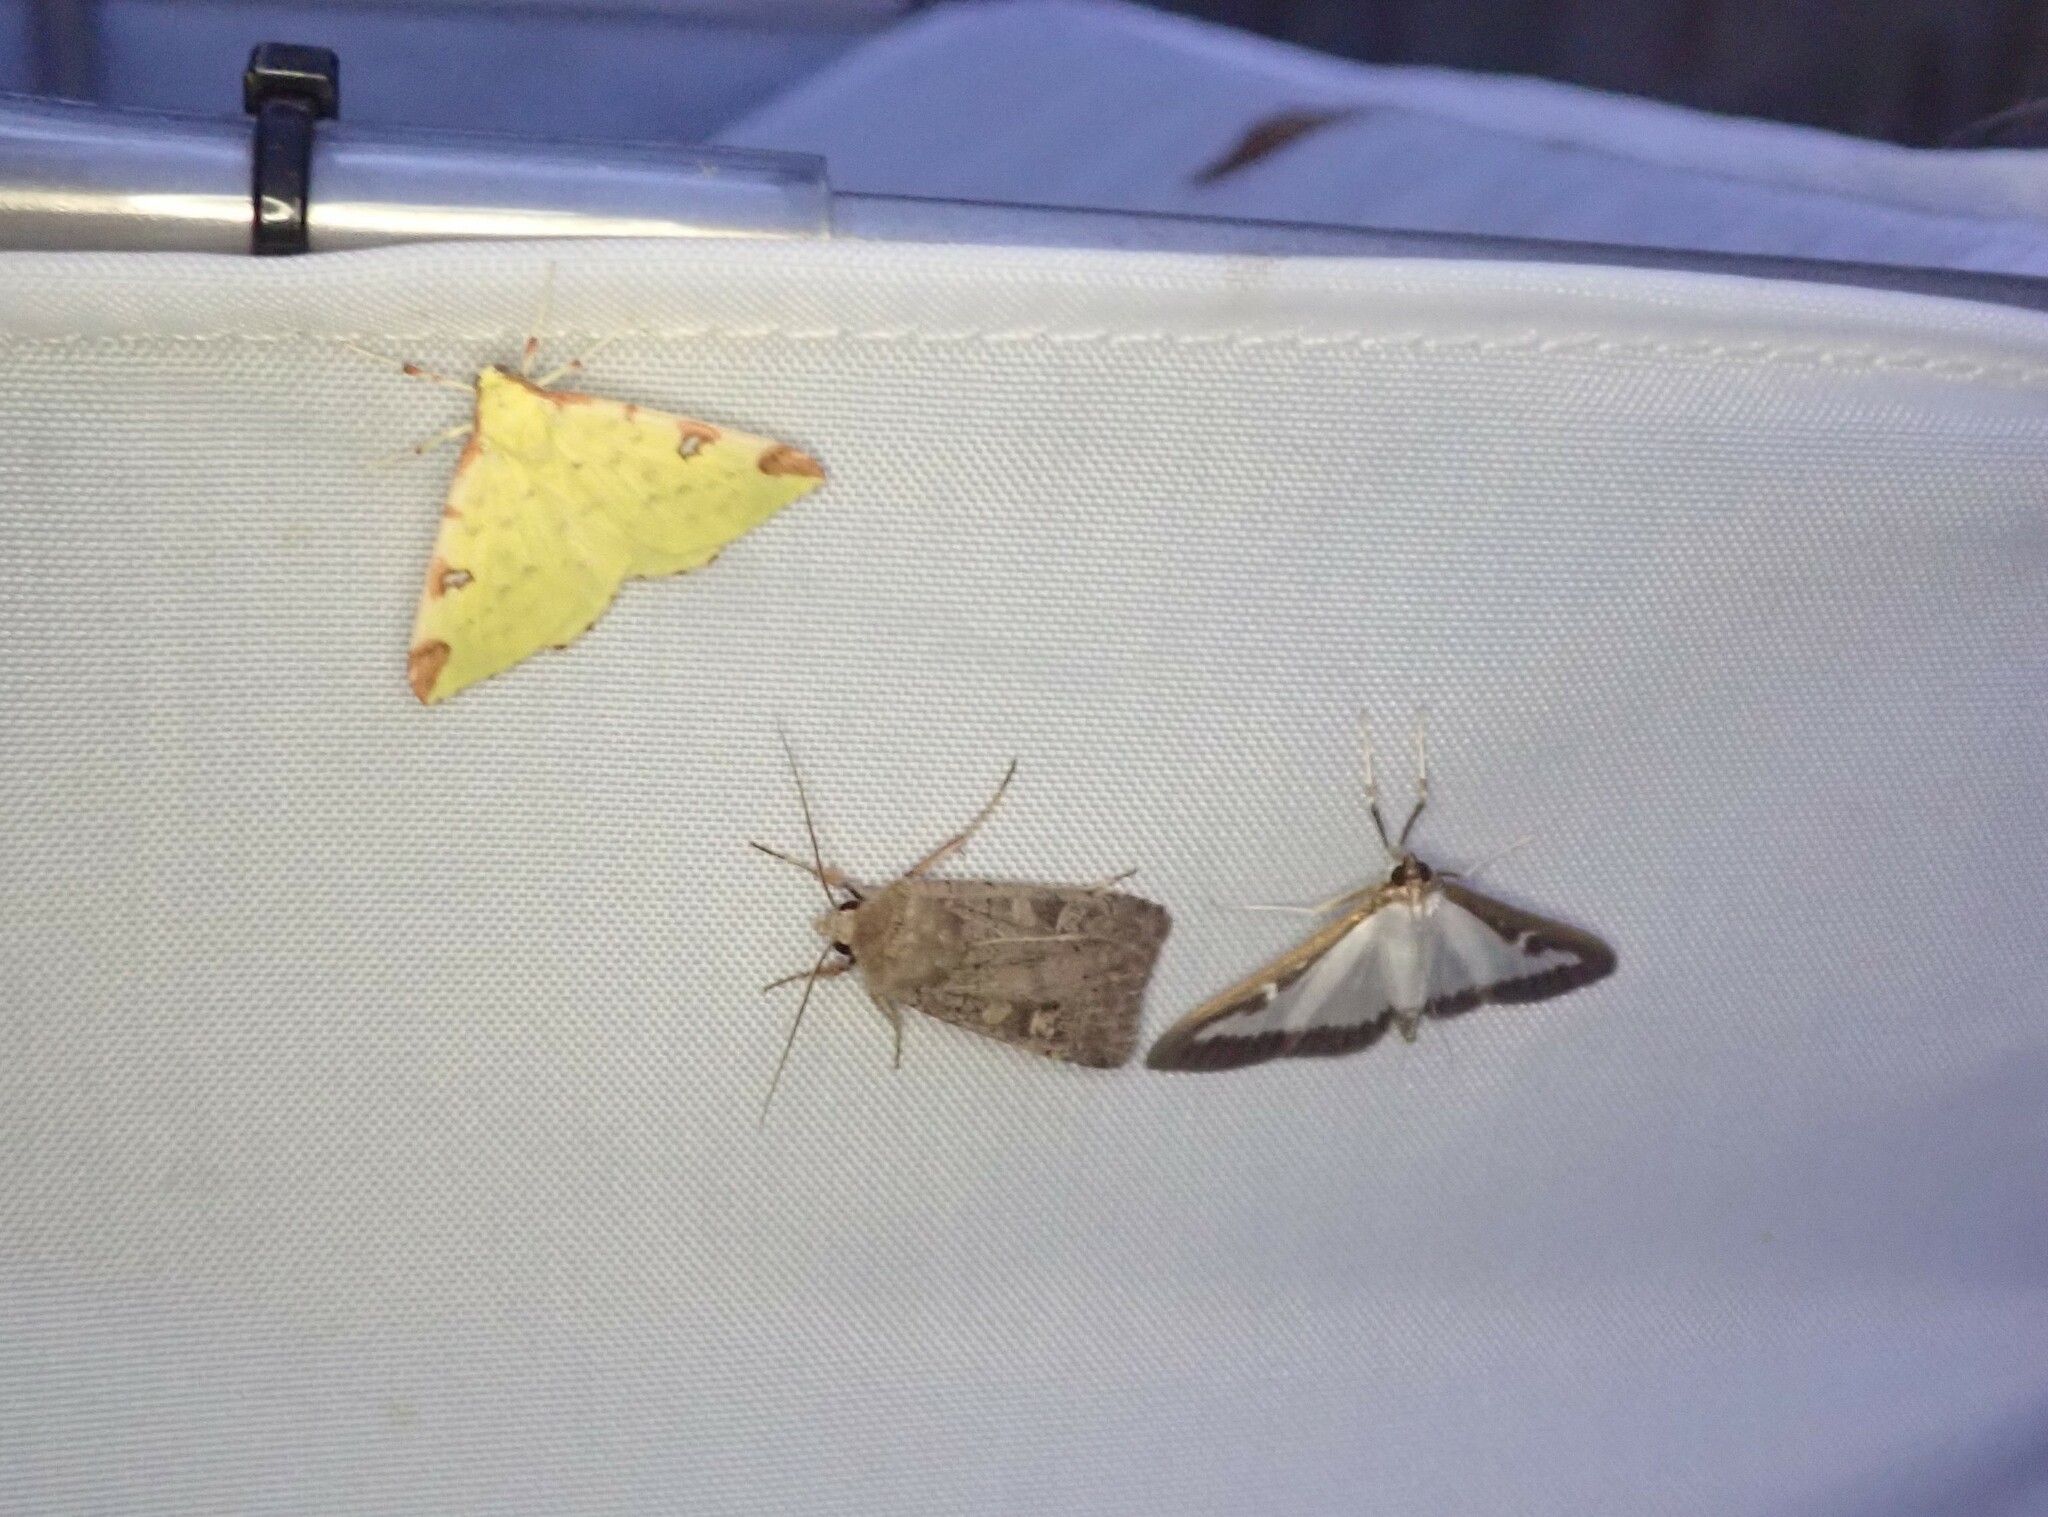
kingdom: Animalia
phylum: Arthropoda
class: Insecta
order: Lepidoptera
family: Geometridae
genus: Opisthograptis
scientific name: Opisthograptis luteolata
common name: Brimstone moth
